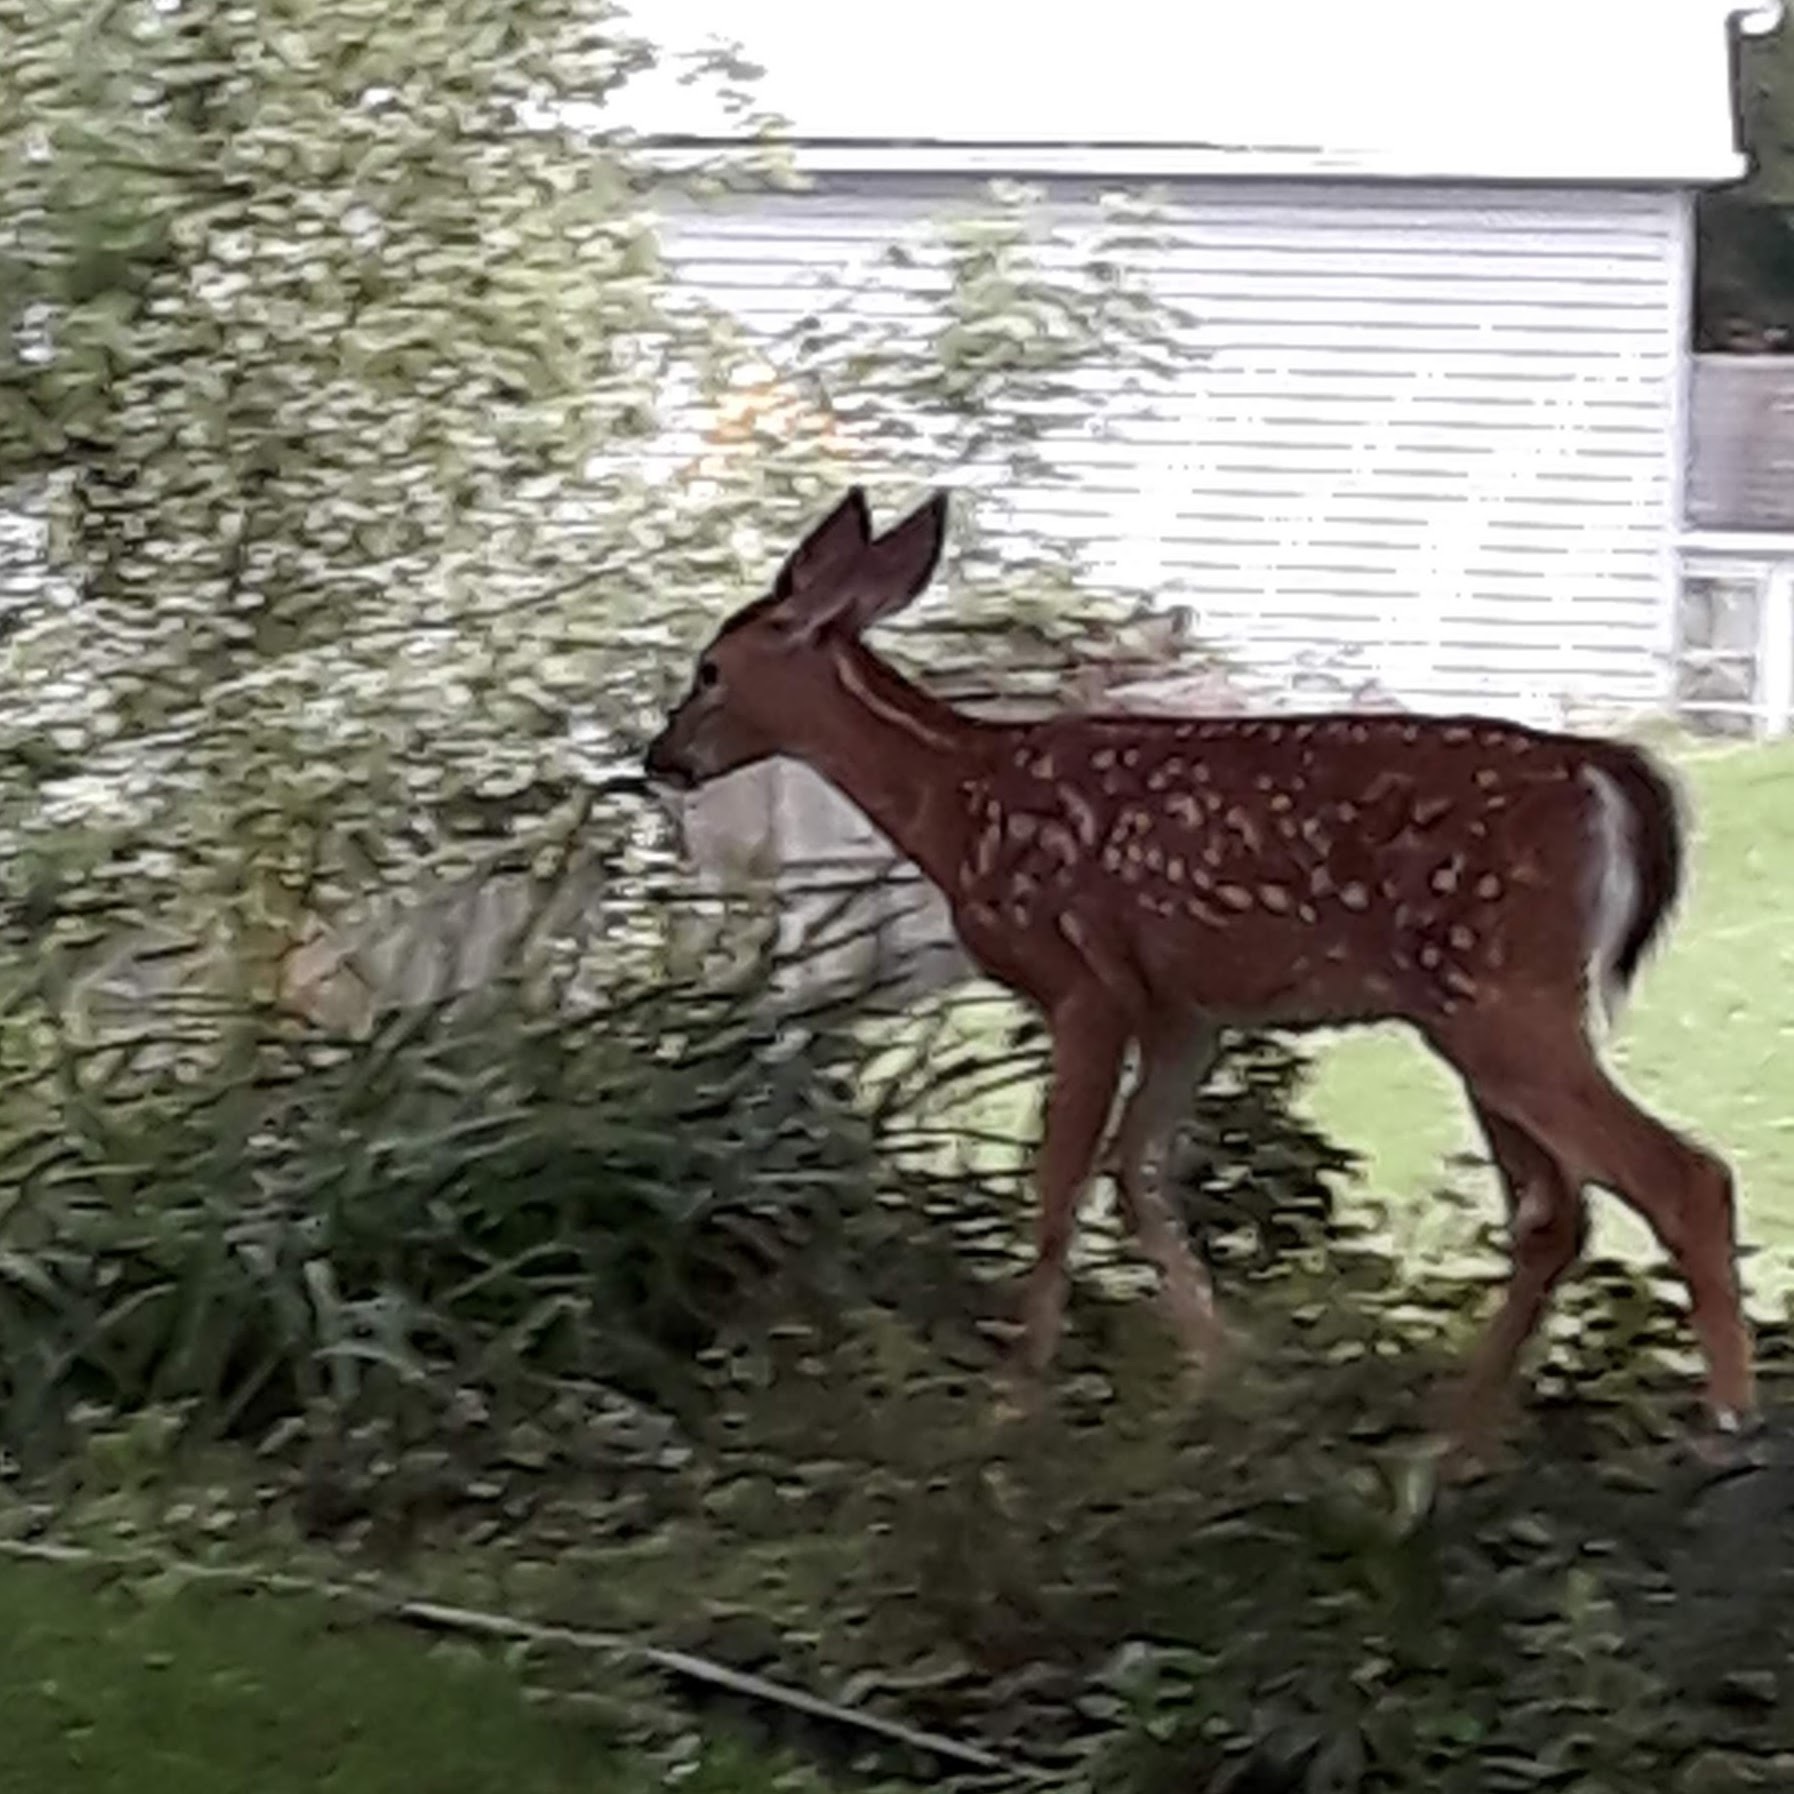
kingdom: Animalia
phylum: Chordata
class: Mammalia
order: Artiodactyla
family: Cervidae
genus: Odocoileus
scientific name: Odocoileus virginianus
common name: White-tailed deer
